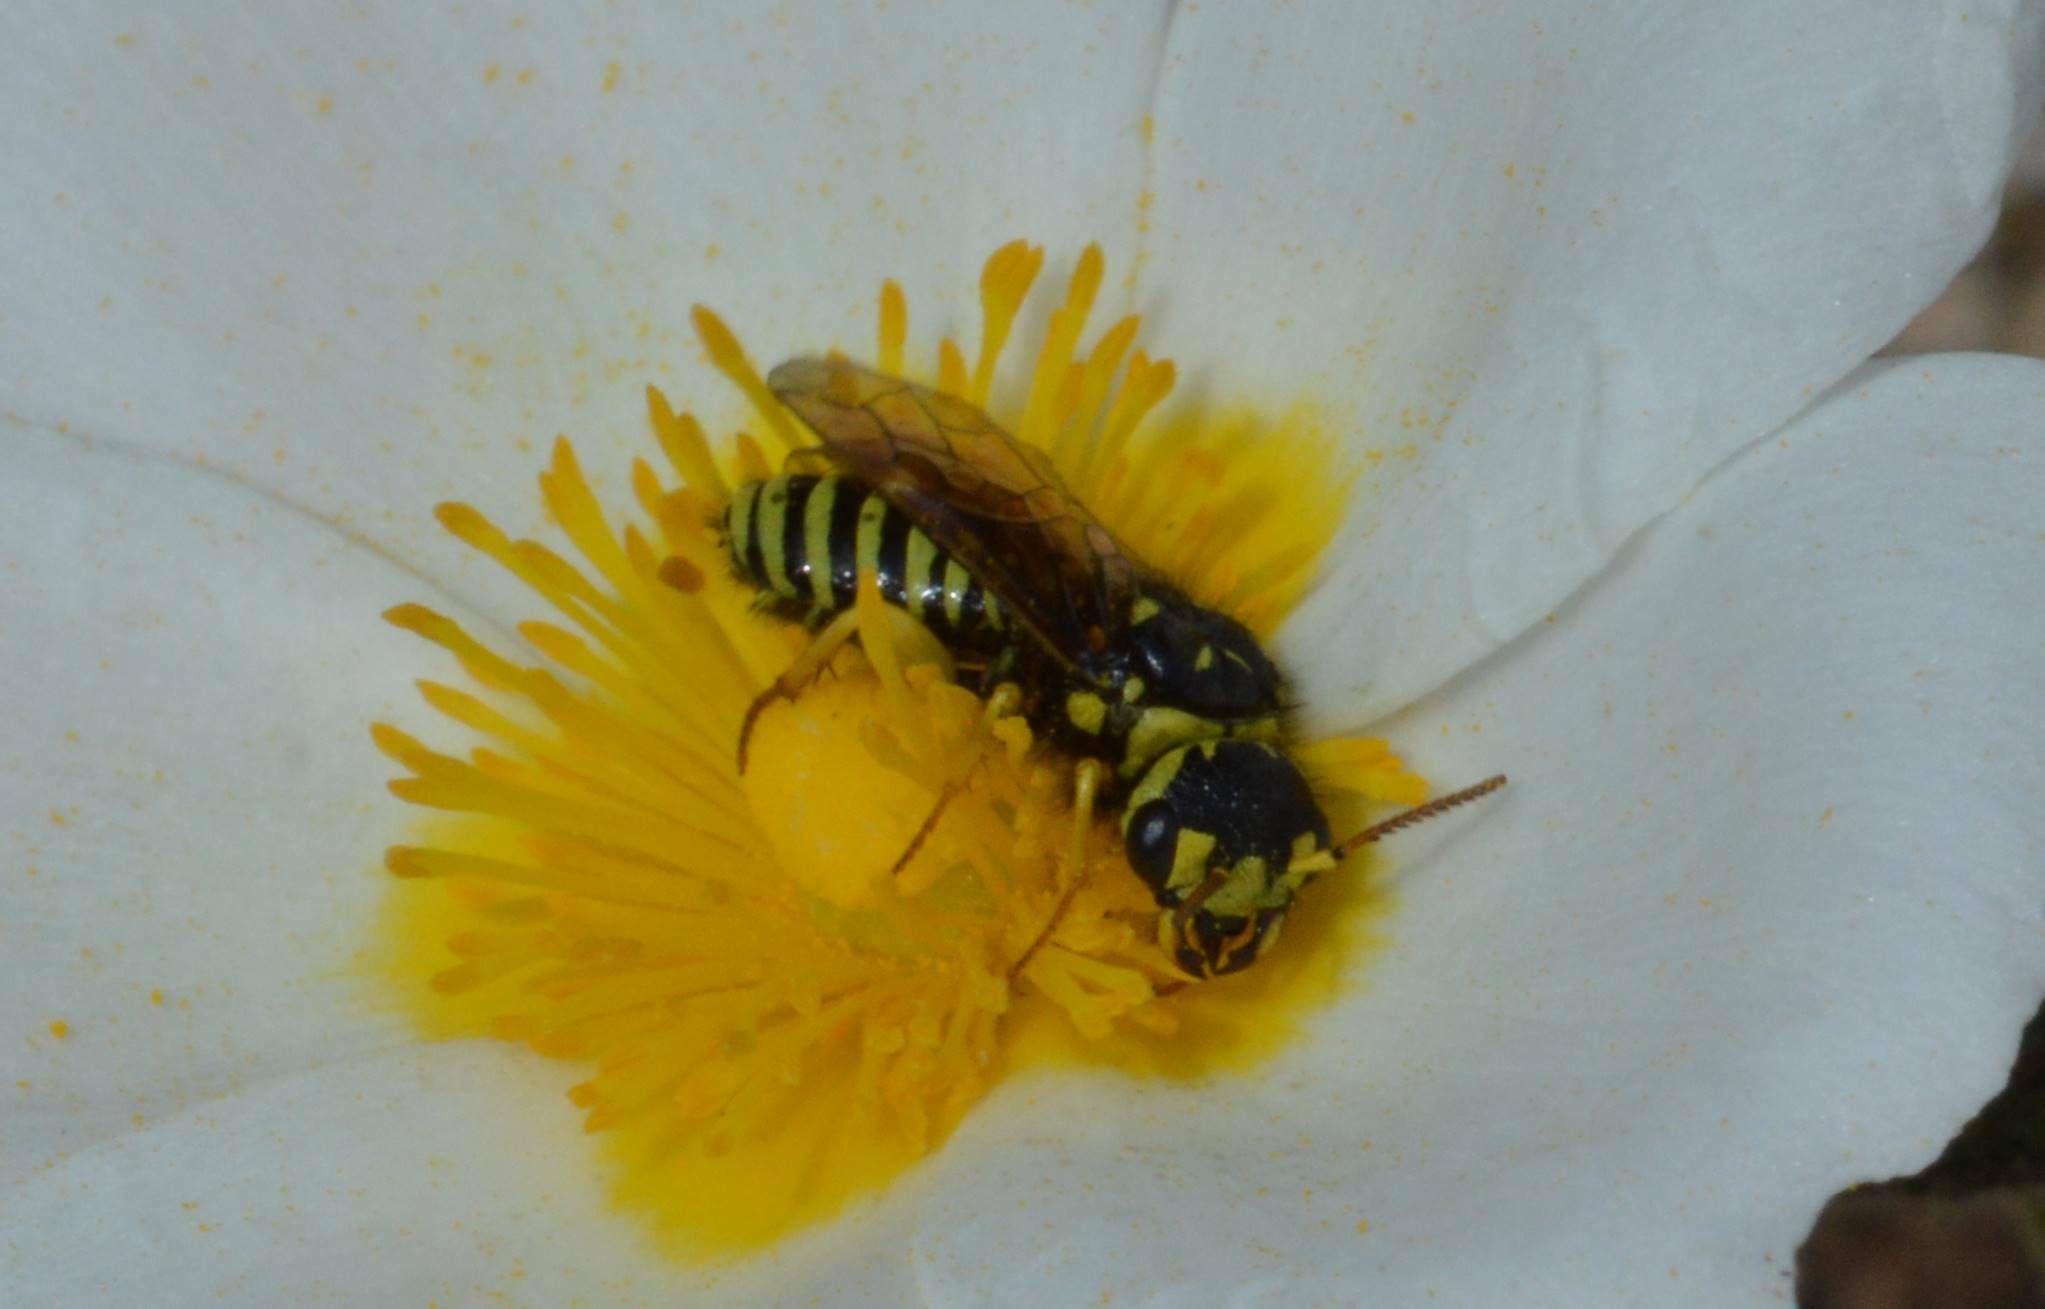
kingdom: Animalia
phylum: Arthropoda
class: Insecta
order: Hymenoptera
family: Megalodontesidae
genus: Megalodontes
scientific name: Megalodontes lacourti
